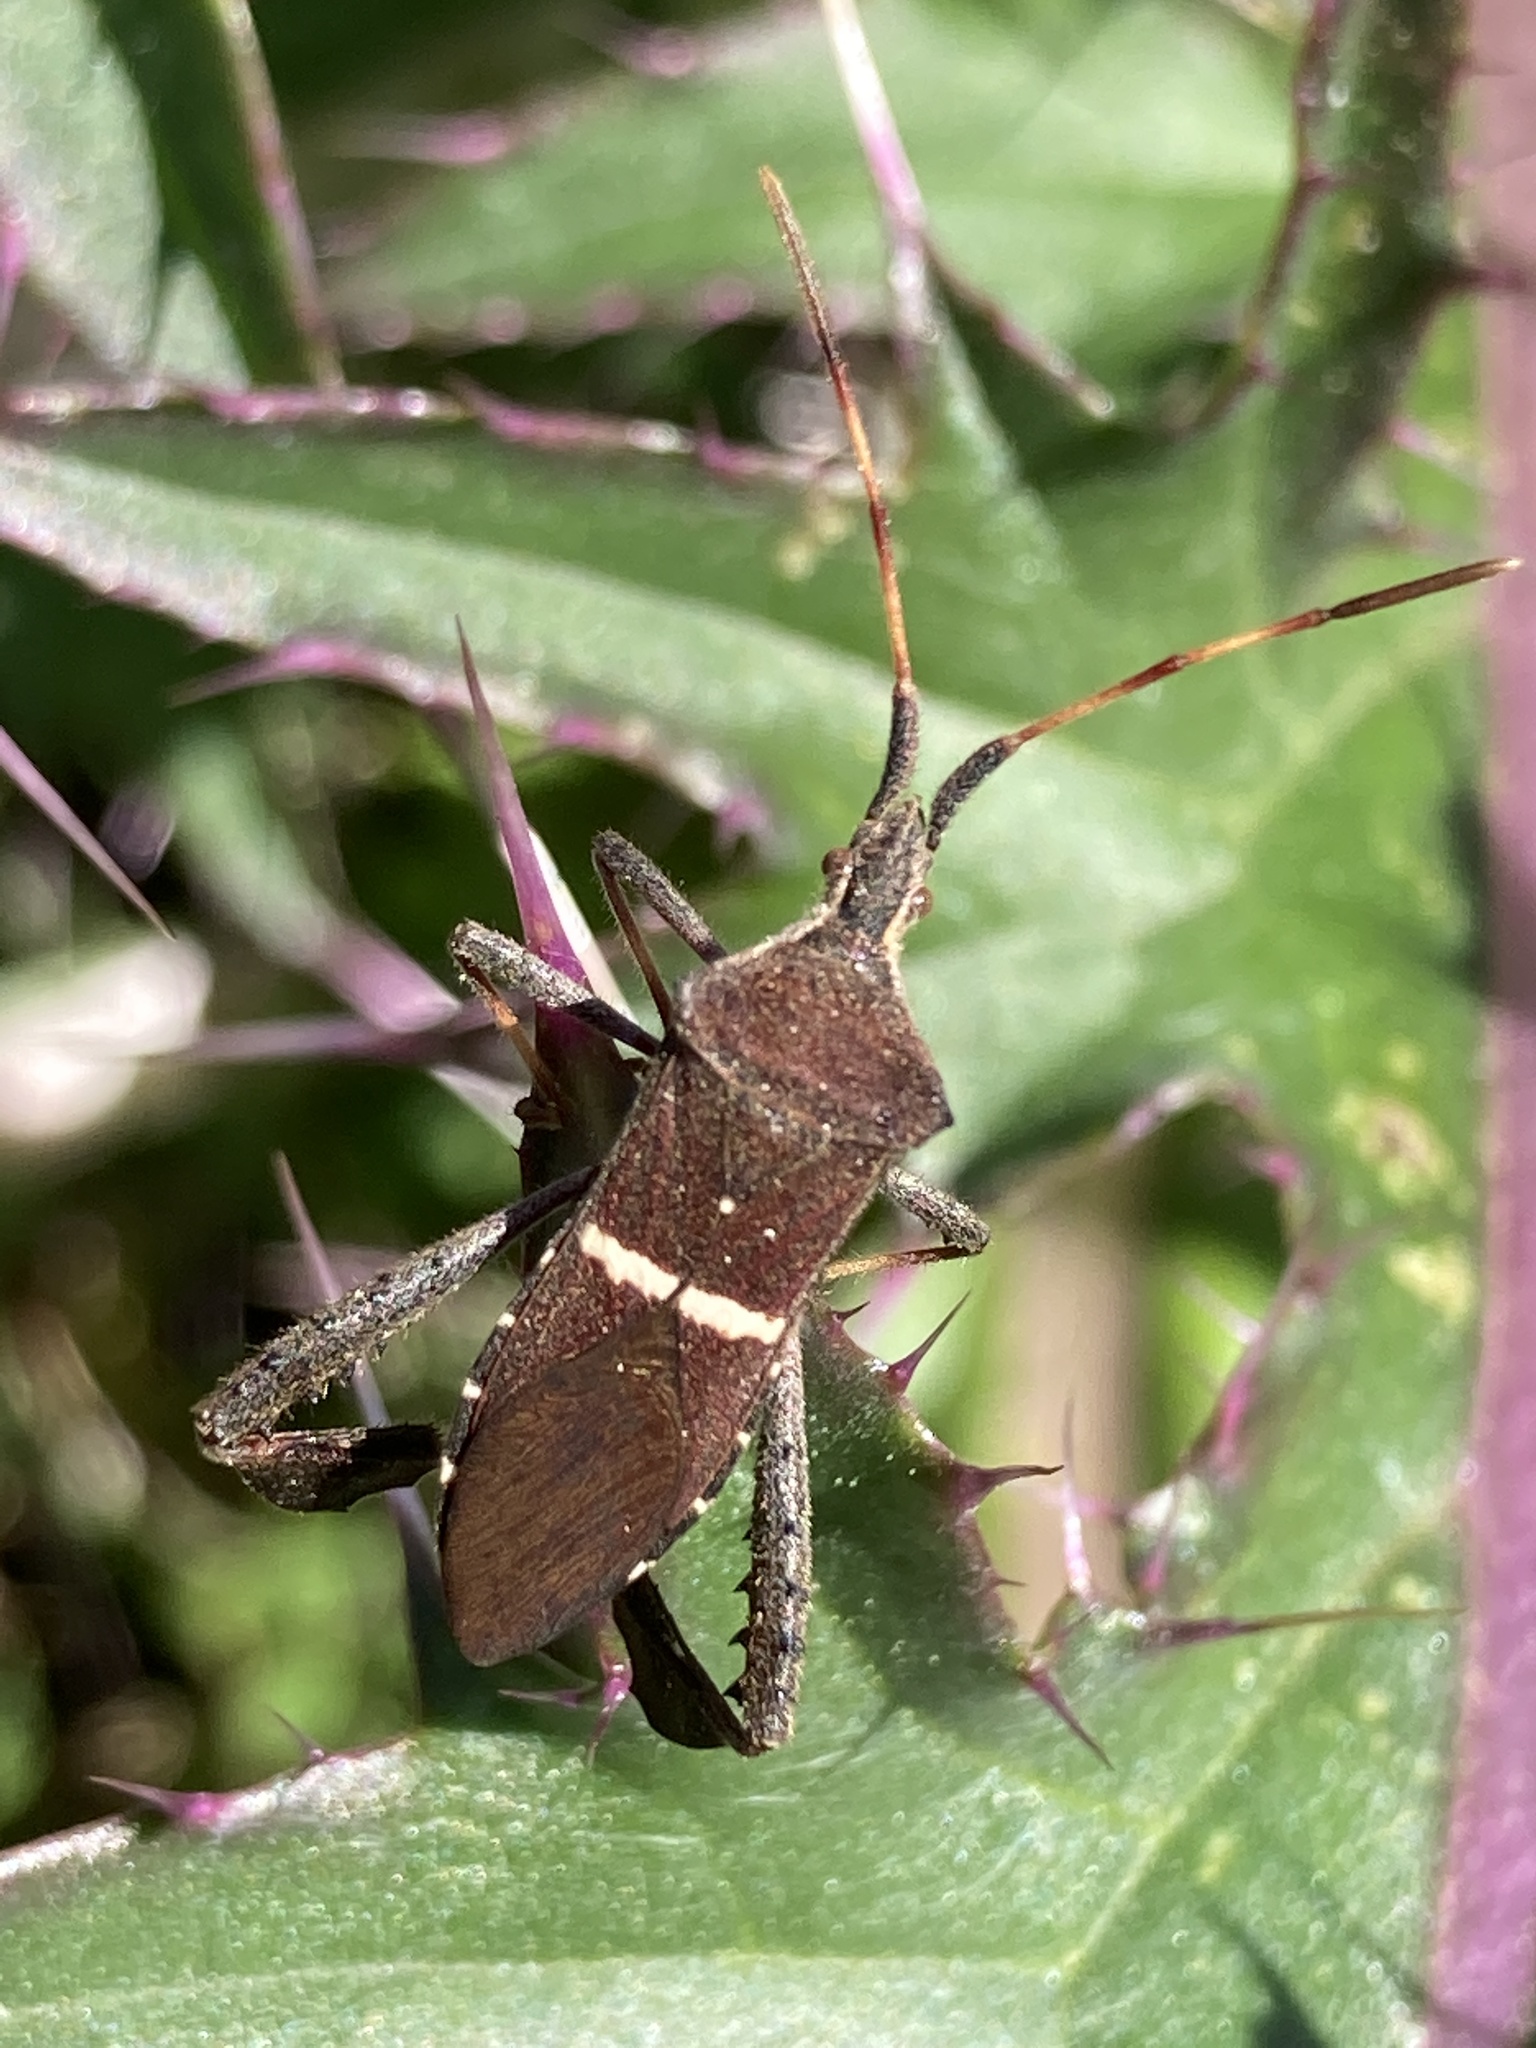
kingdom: Animalia
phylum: Arthropoda
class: Insecta
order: Hemiptera
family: Coreidae
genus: Leptoglossus
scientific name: Leptoglossus phyllopus
